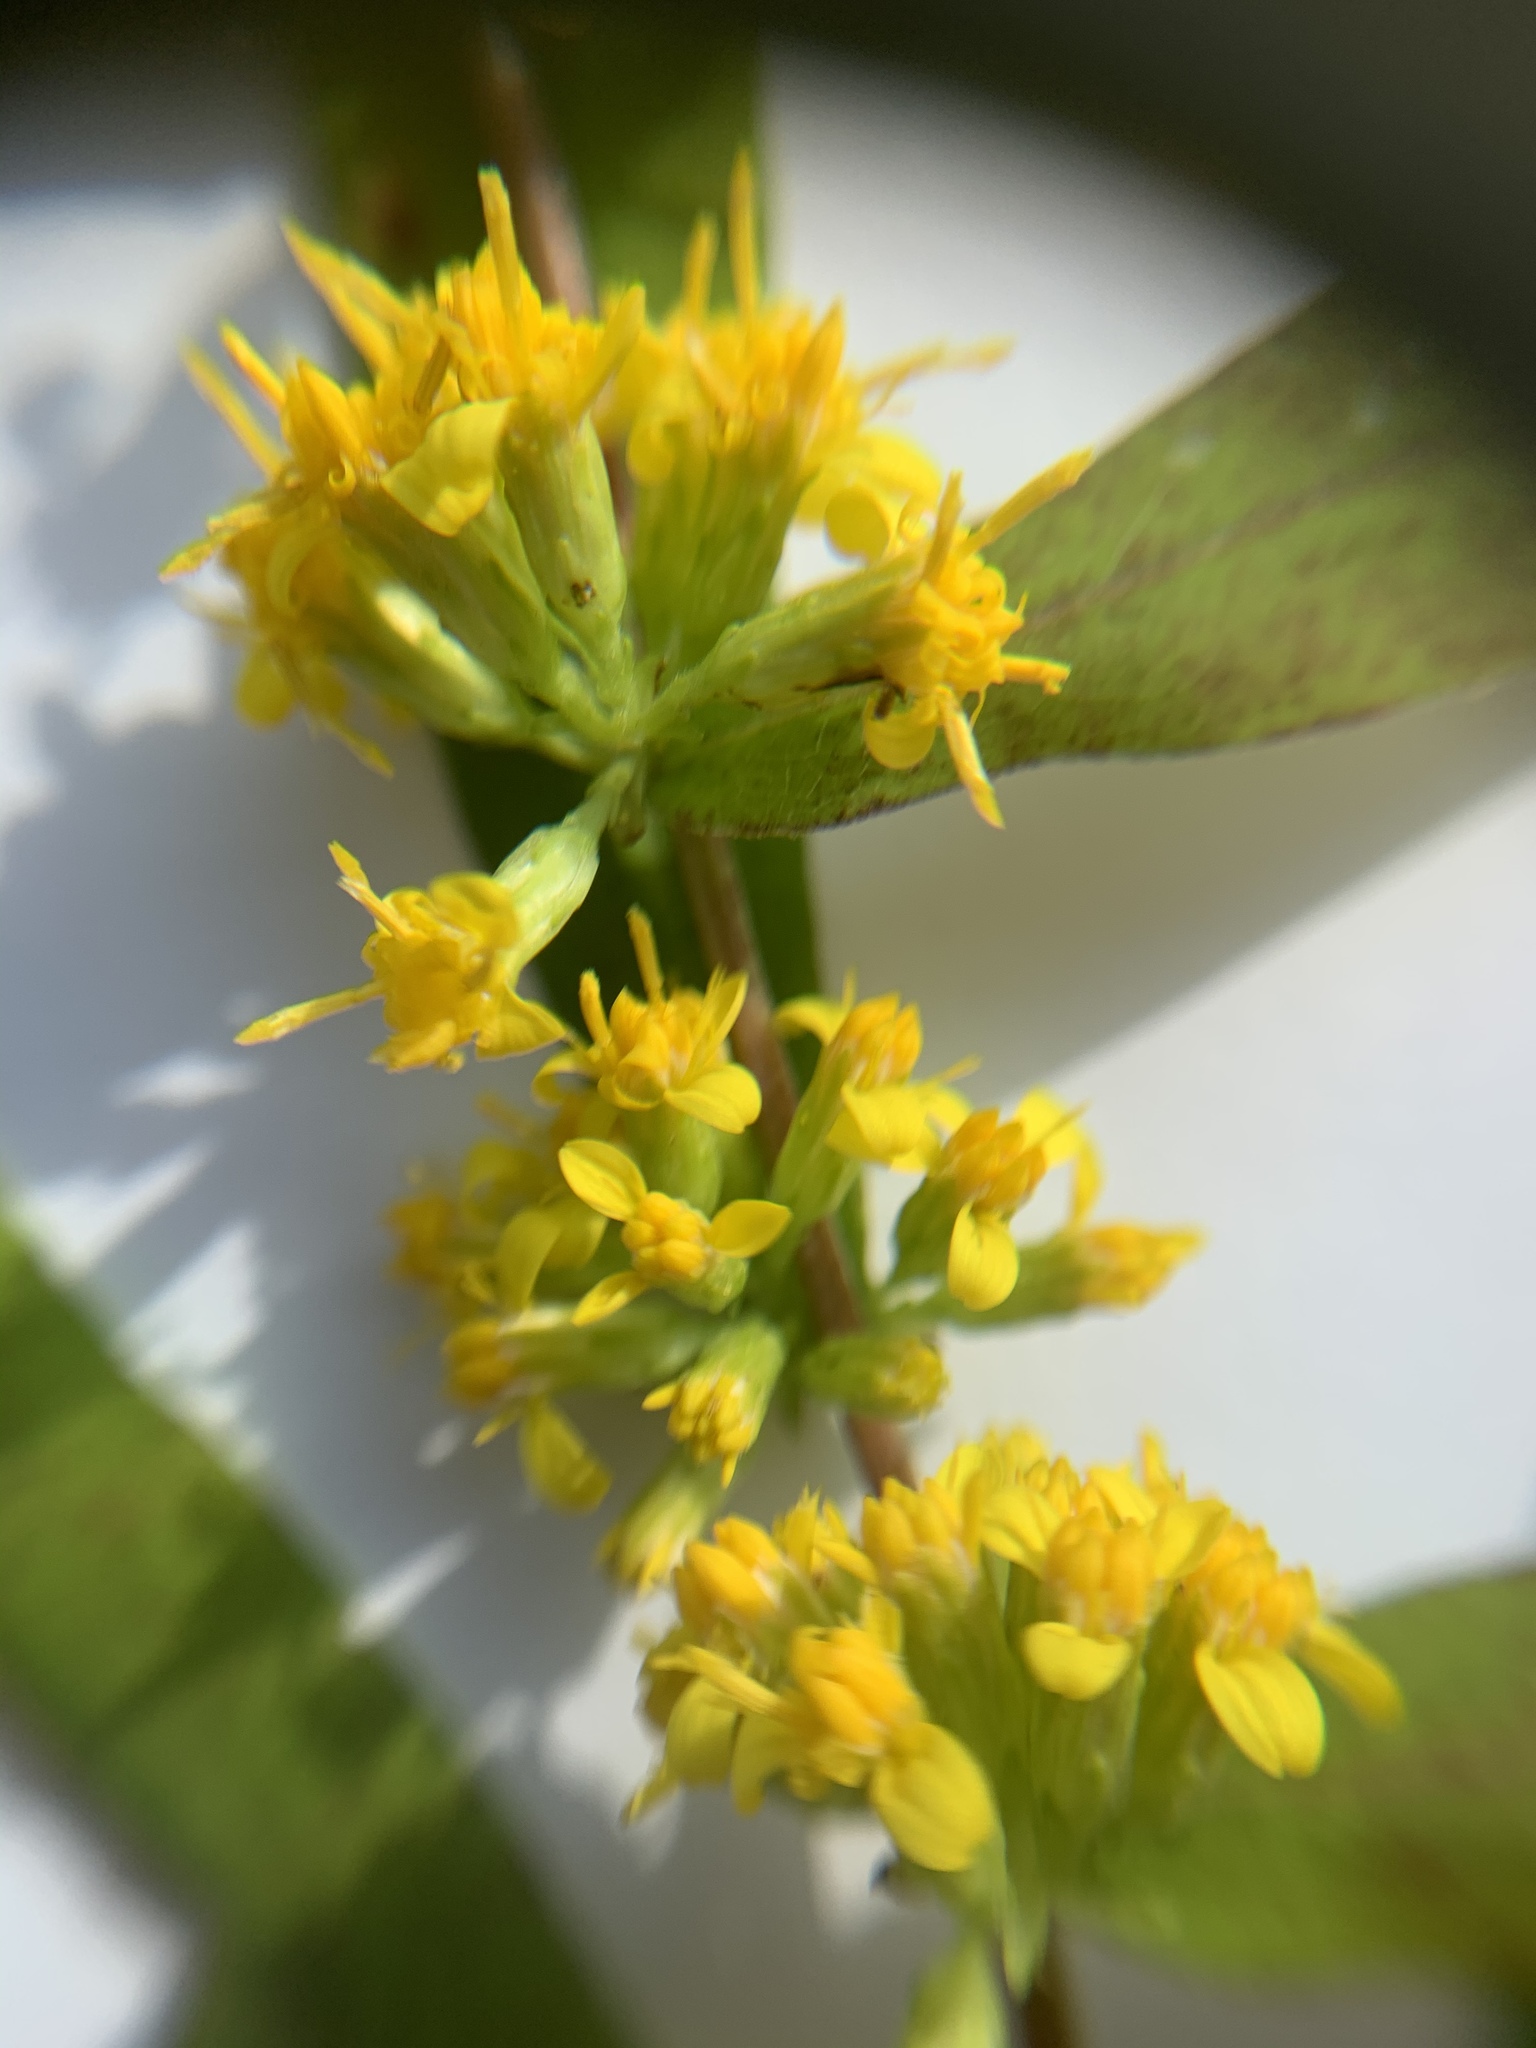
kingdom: Plantae
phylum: Tracheophyta
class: Magnoliopsida
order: Asterales
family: Asteraceae
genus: Solidago
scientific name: Solidago caesia
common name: Woodland goldenrod
